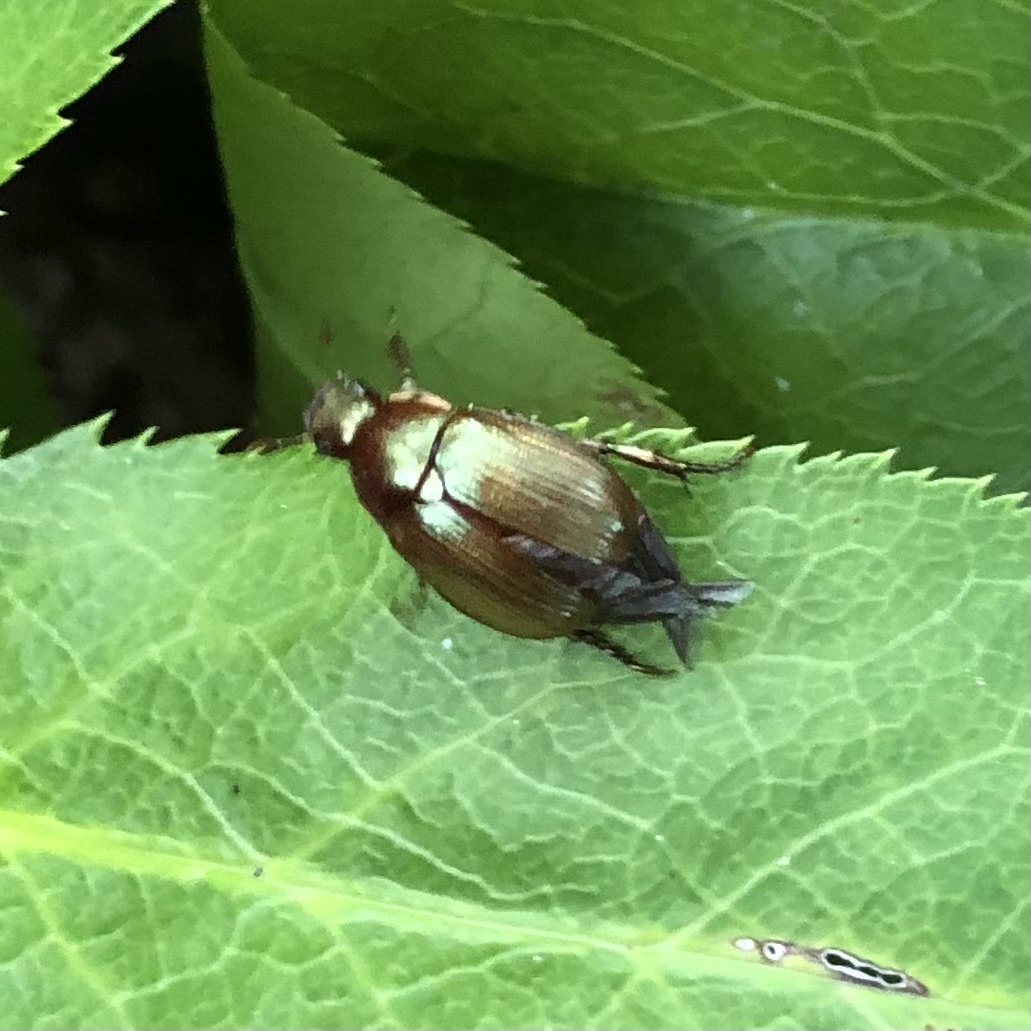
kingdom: Animalia
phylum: Arthropoda
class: Insecta
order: Coleoptera
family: Scarabaeidae
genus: Callistethus
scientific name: Callistethus marginatus
